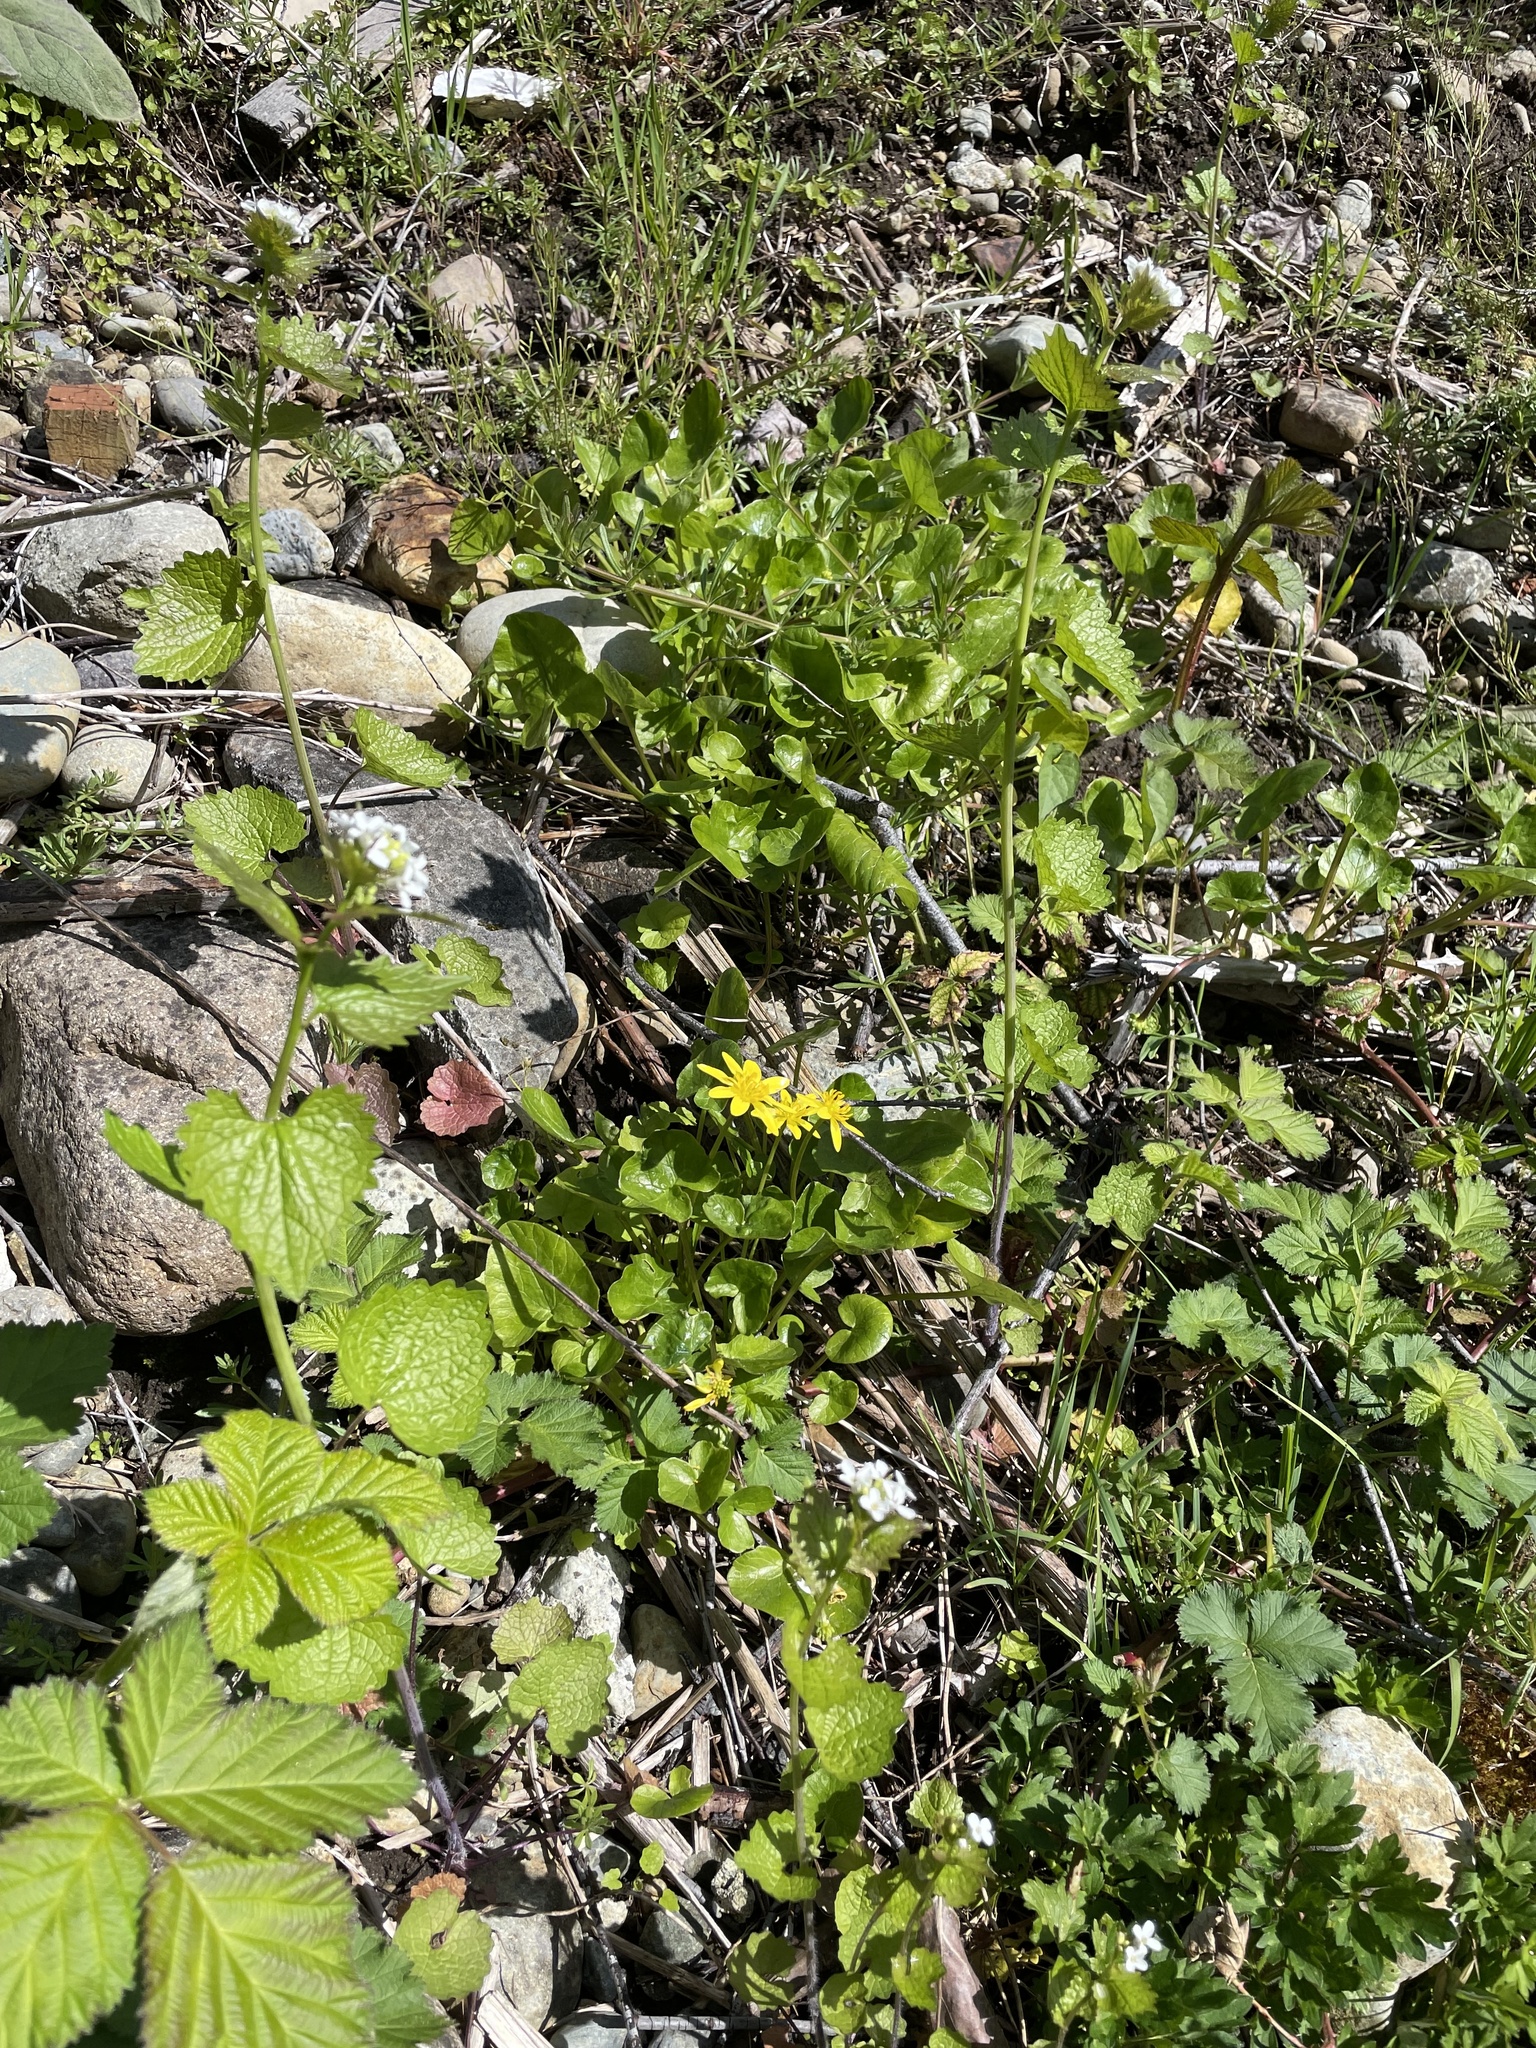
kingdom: Plantae
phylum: Tracheophyta
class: Magnoliopsida
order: Ranunculales
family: Ranunculaceae
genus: Ficaria
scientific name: Ficaria verna
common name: Lesser celandine
